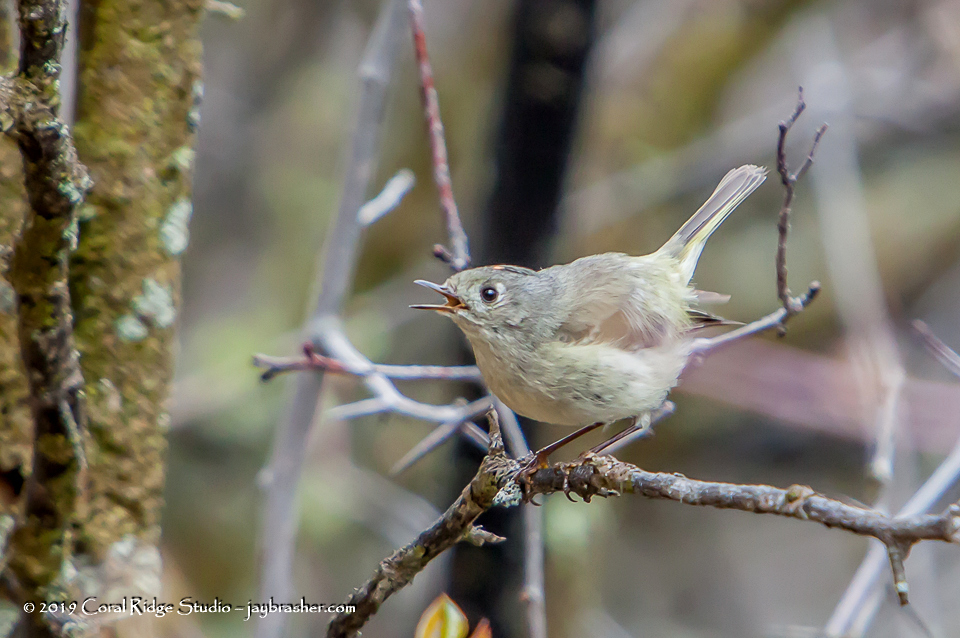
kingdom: Animalia
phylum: Chordata
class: Aves
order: Passeriformes
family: Regulidae
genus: Regulus
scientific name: Regulus calendula
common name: Ruby-crowned kinglet
